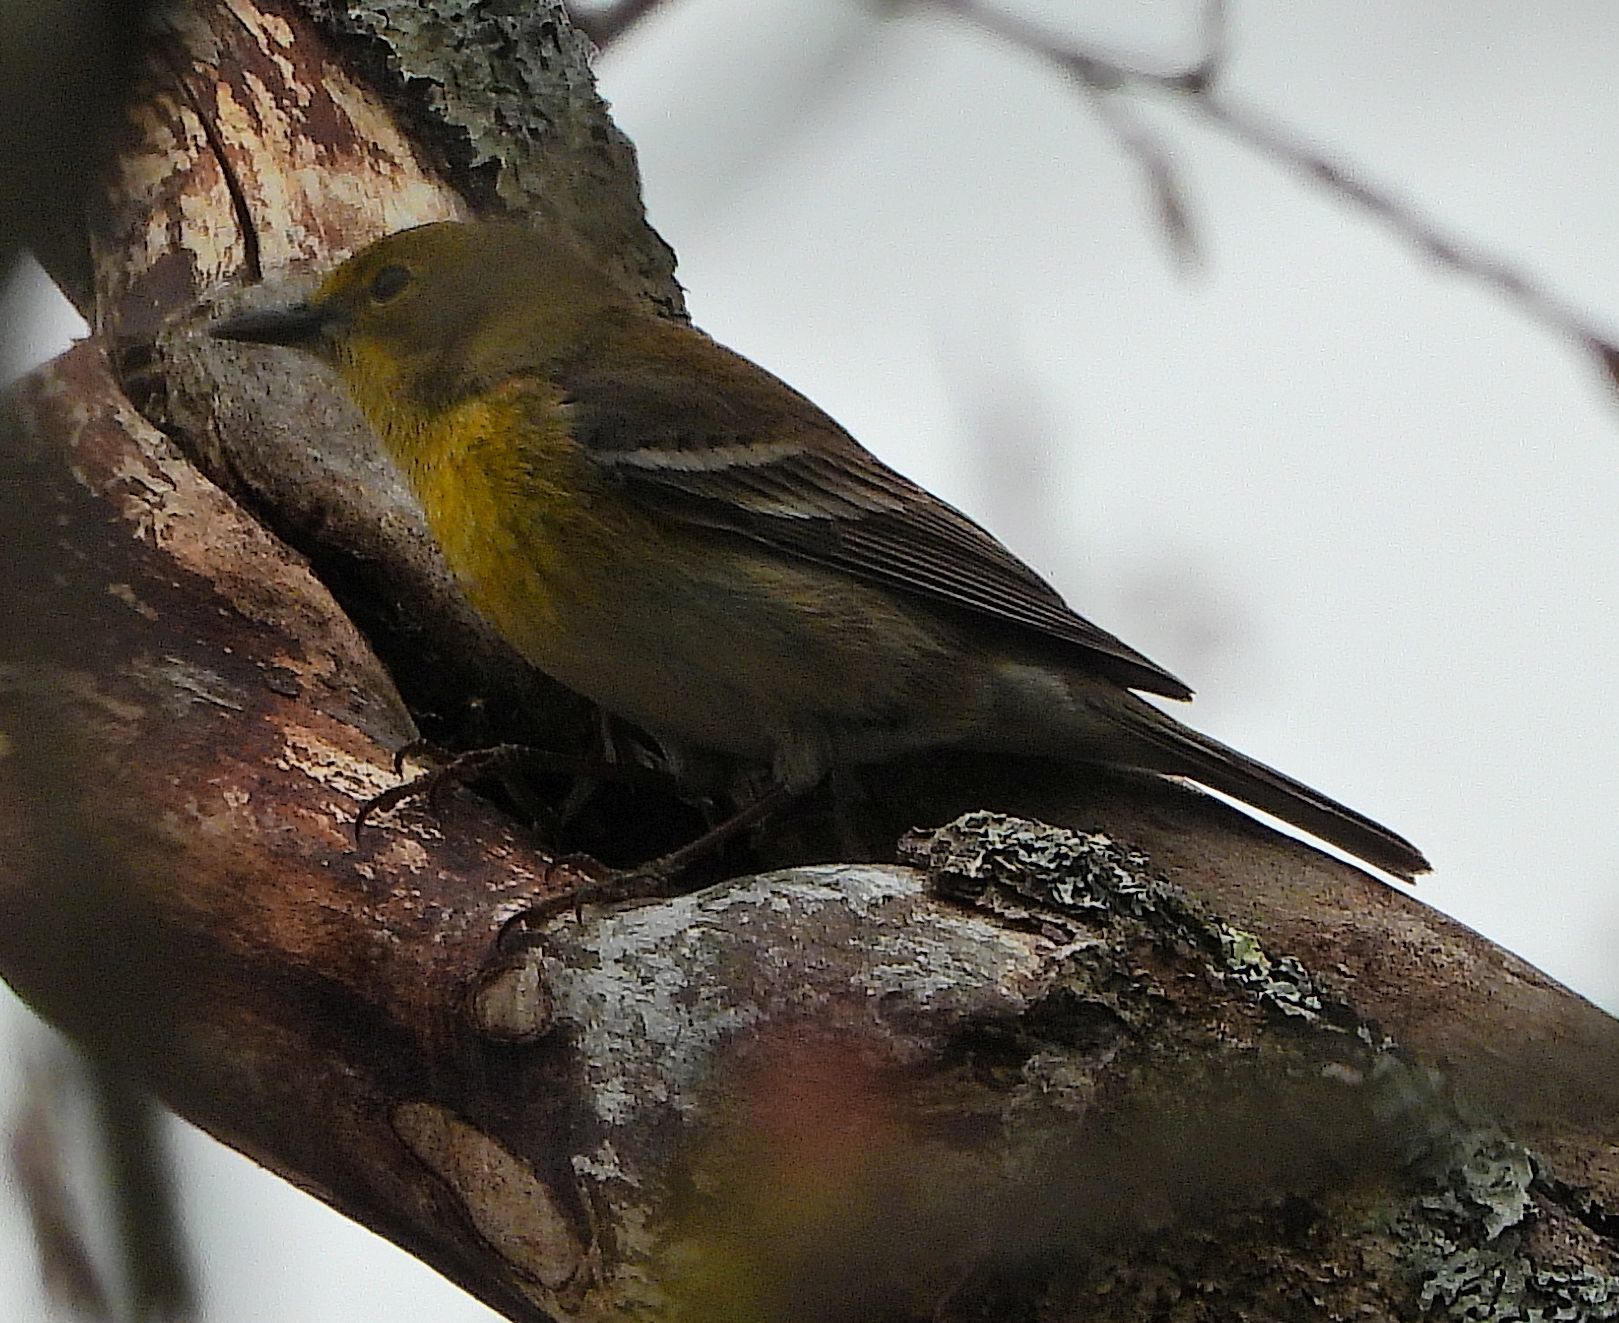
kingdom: Animalia
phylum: Chordata
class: Aves
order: Passeriformes
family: Parulidae
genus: Setophaga
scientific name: Setophaga pinus
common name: Pine warbler
